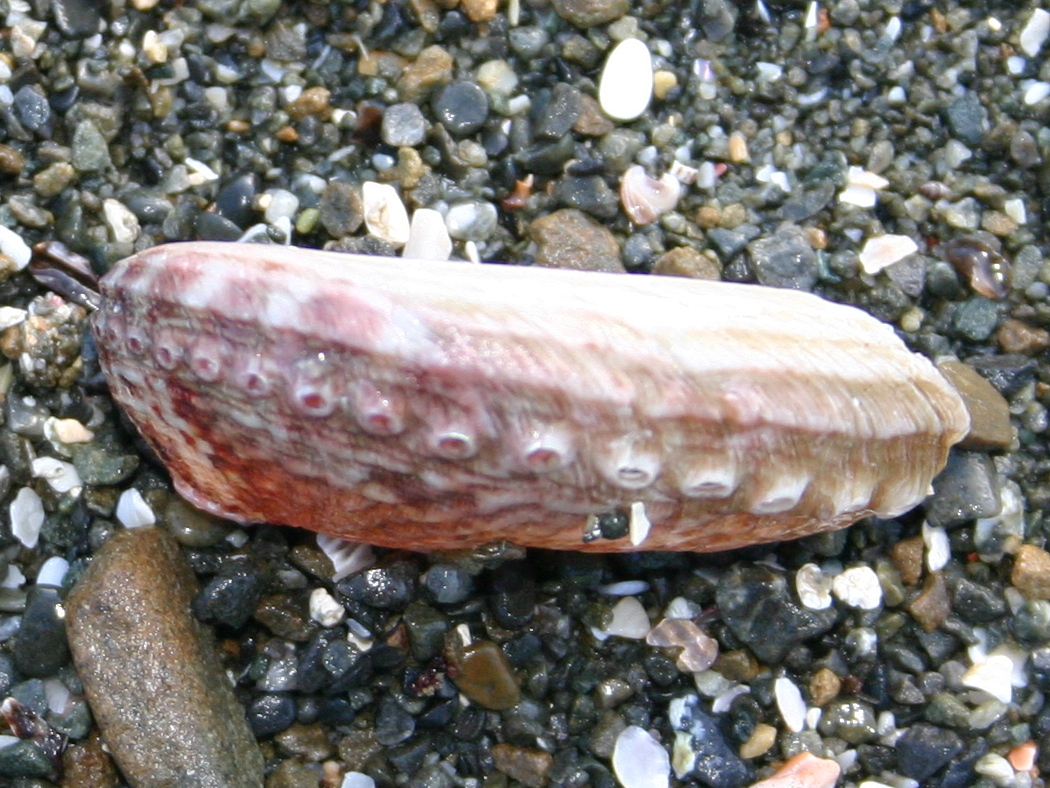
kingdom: Animalia
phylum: Mollusca
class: Gastropoda
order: Lepetellida
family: Haliotidae
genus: Haliotis
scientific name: Haliotis australis
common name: Silver abalone
